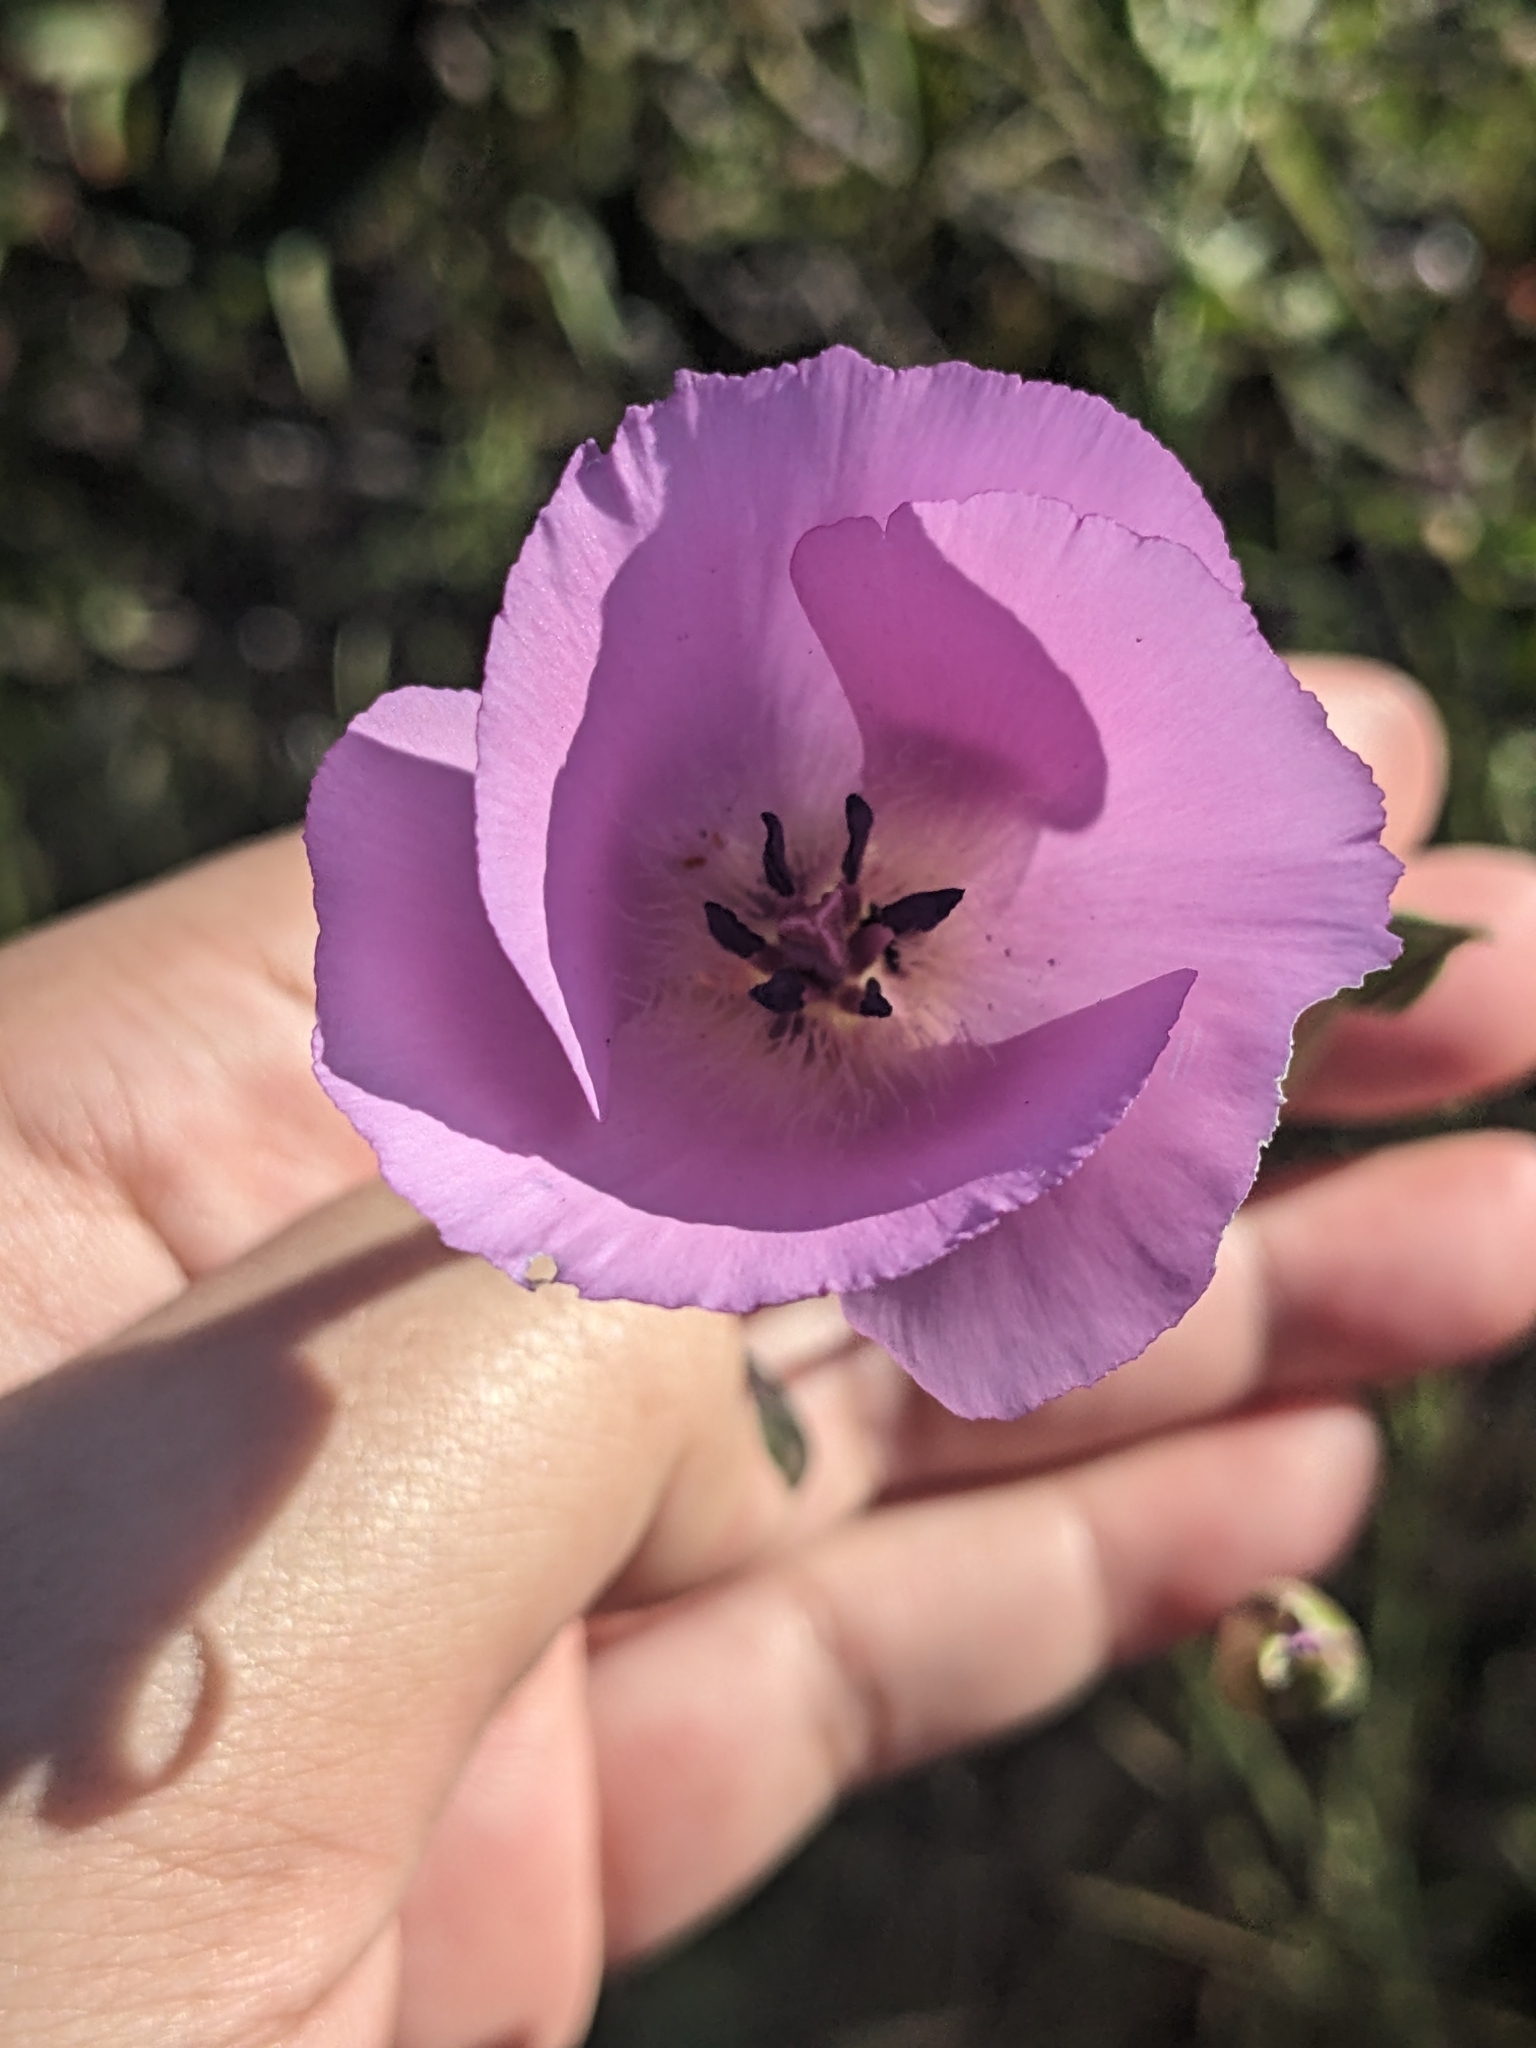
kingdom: Plantae
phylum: Tracheophyta
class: Liliopsida
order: Liliales
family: Liliaceae
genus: Calochortus
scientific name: Calochortus splendens
